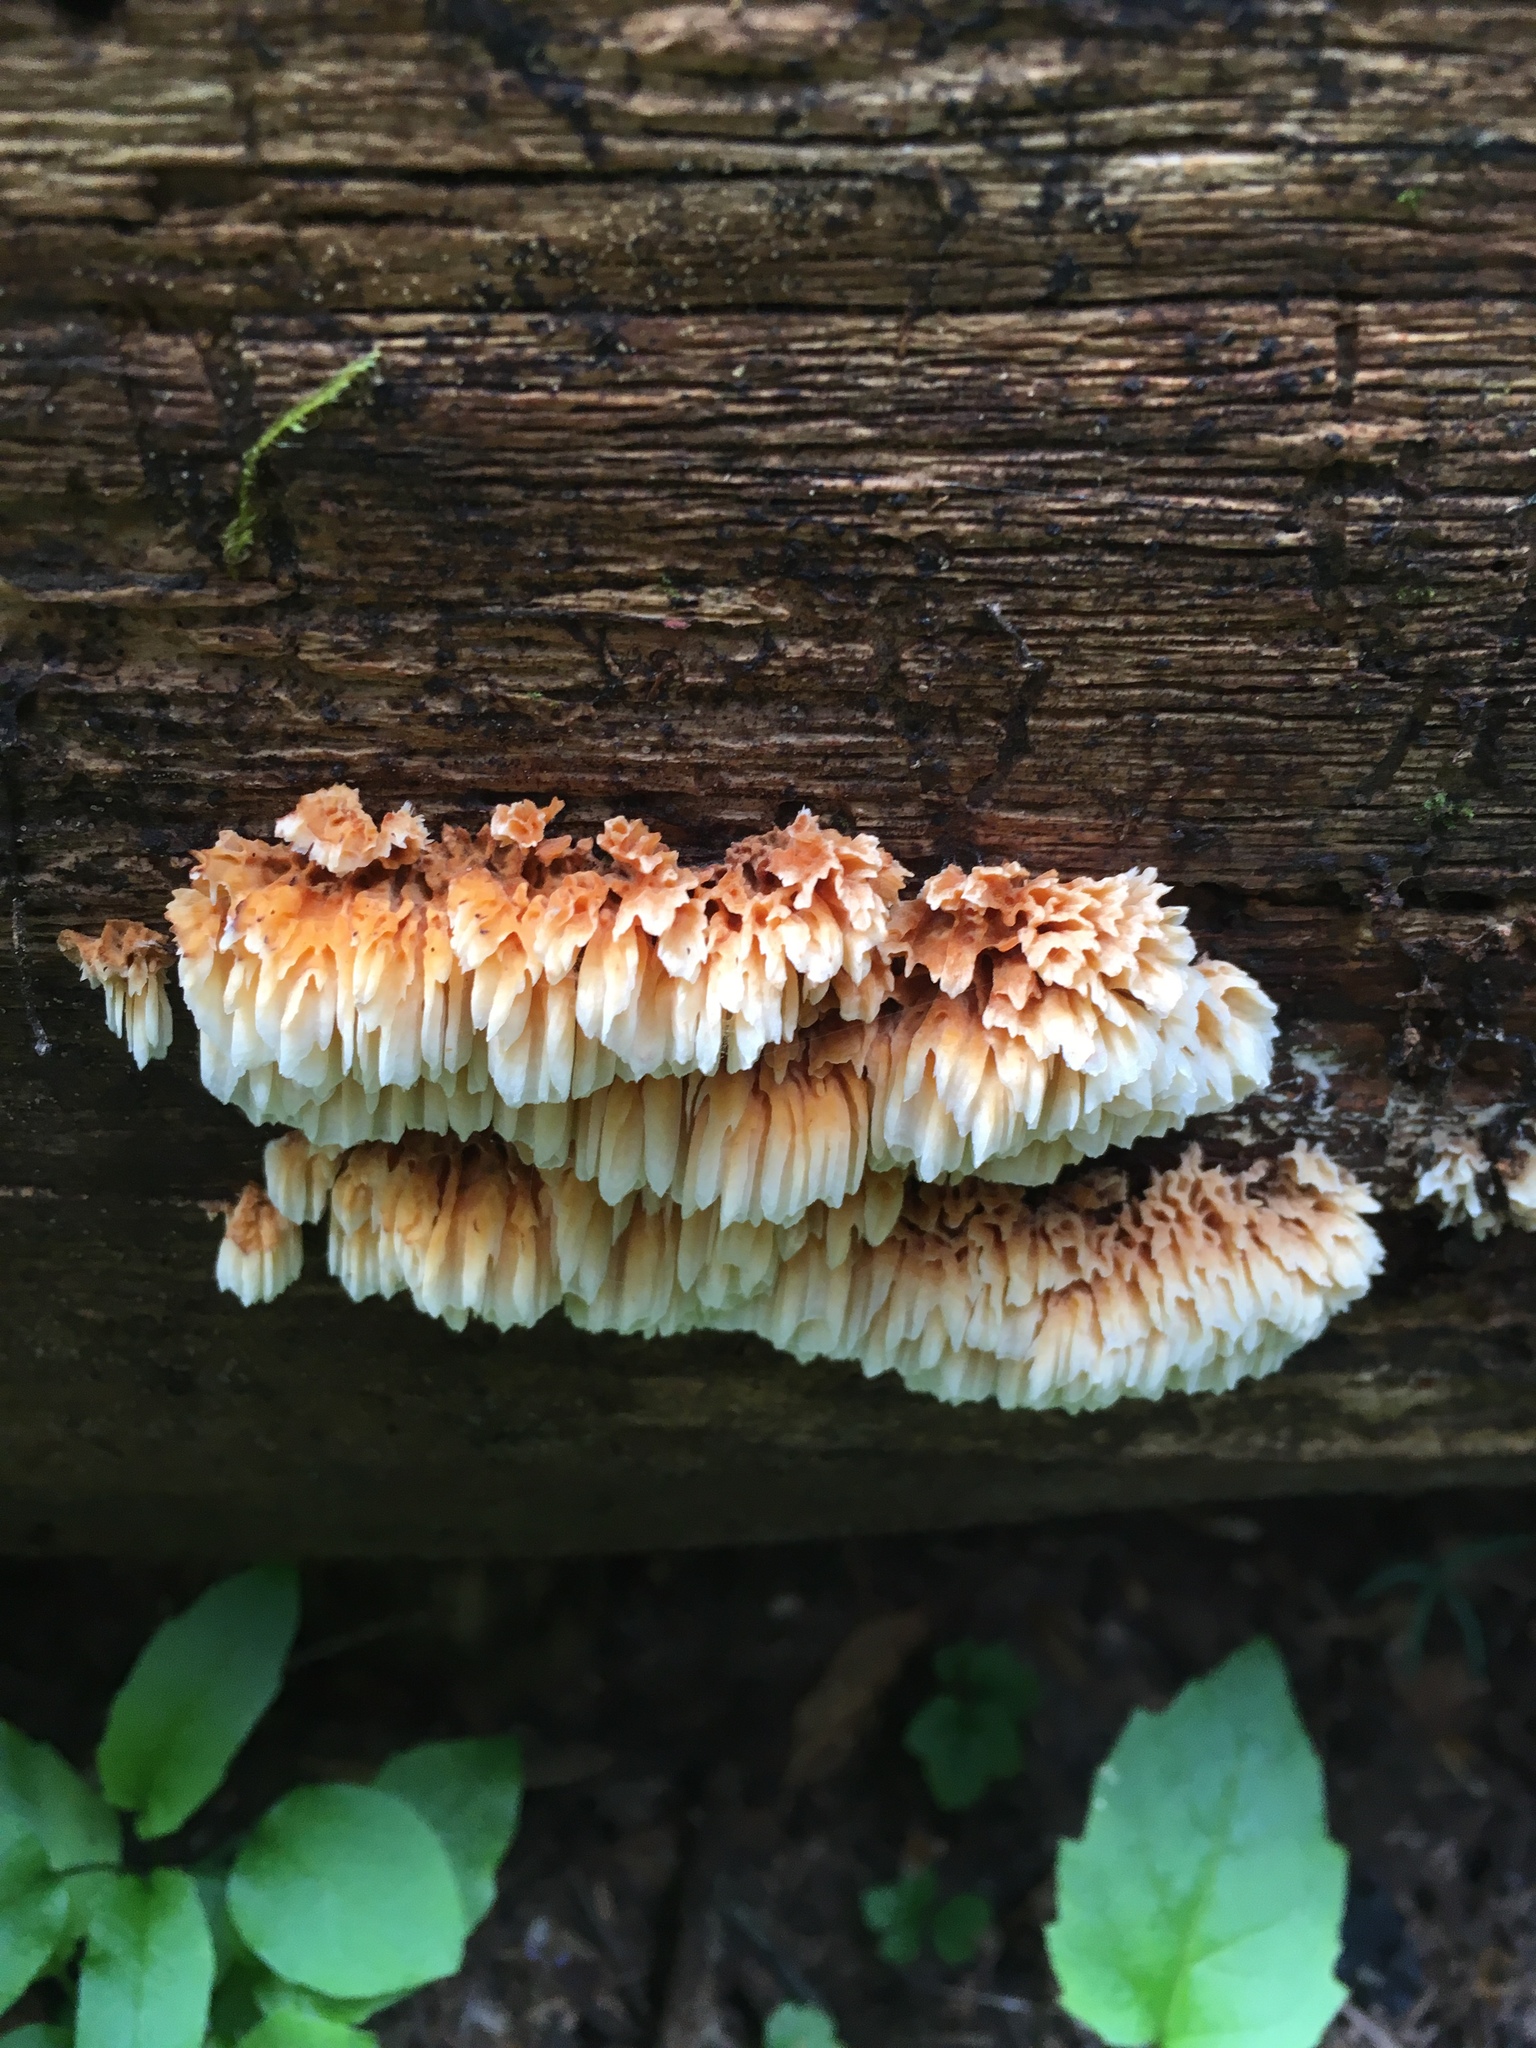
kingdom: Fungi
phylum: Basidiomycota
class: Agaricomycetes
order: Polyporales
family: Pycnoporellaceae
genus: Pycnoporellus
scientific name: Pycnoporellus alboluteus
